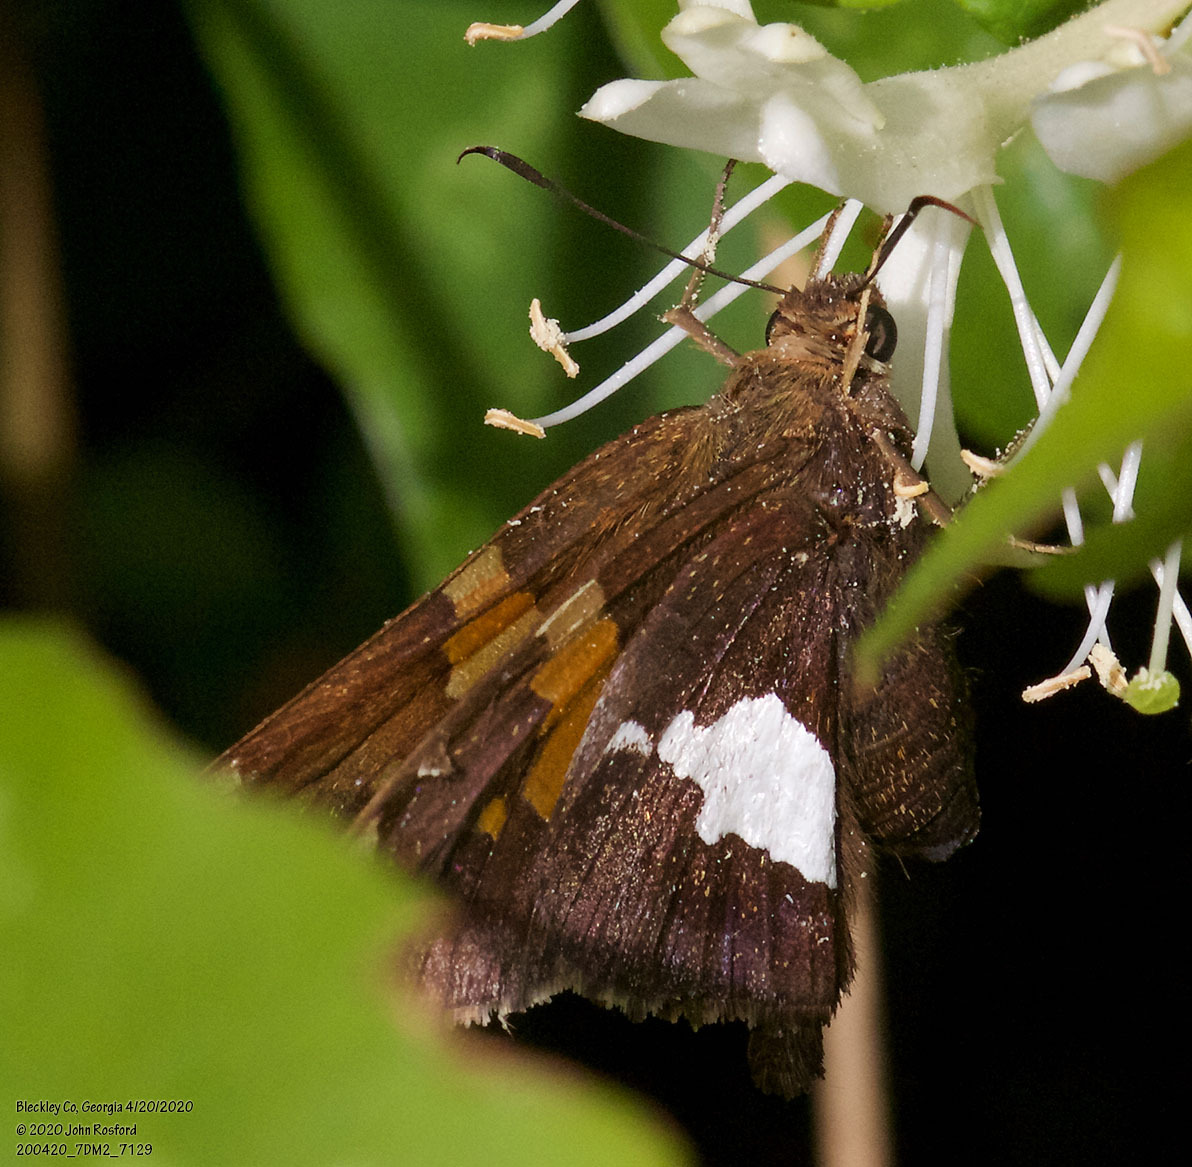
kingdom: Animalia
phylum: Arthropoda
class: Insecta
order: Lepidoptera
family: Hesperiidae
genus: Epargyreus
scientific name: Epargyreus clarus
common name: Silver-spotted skipper
